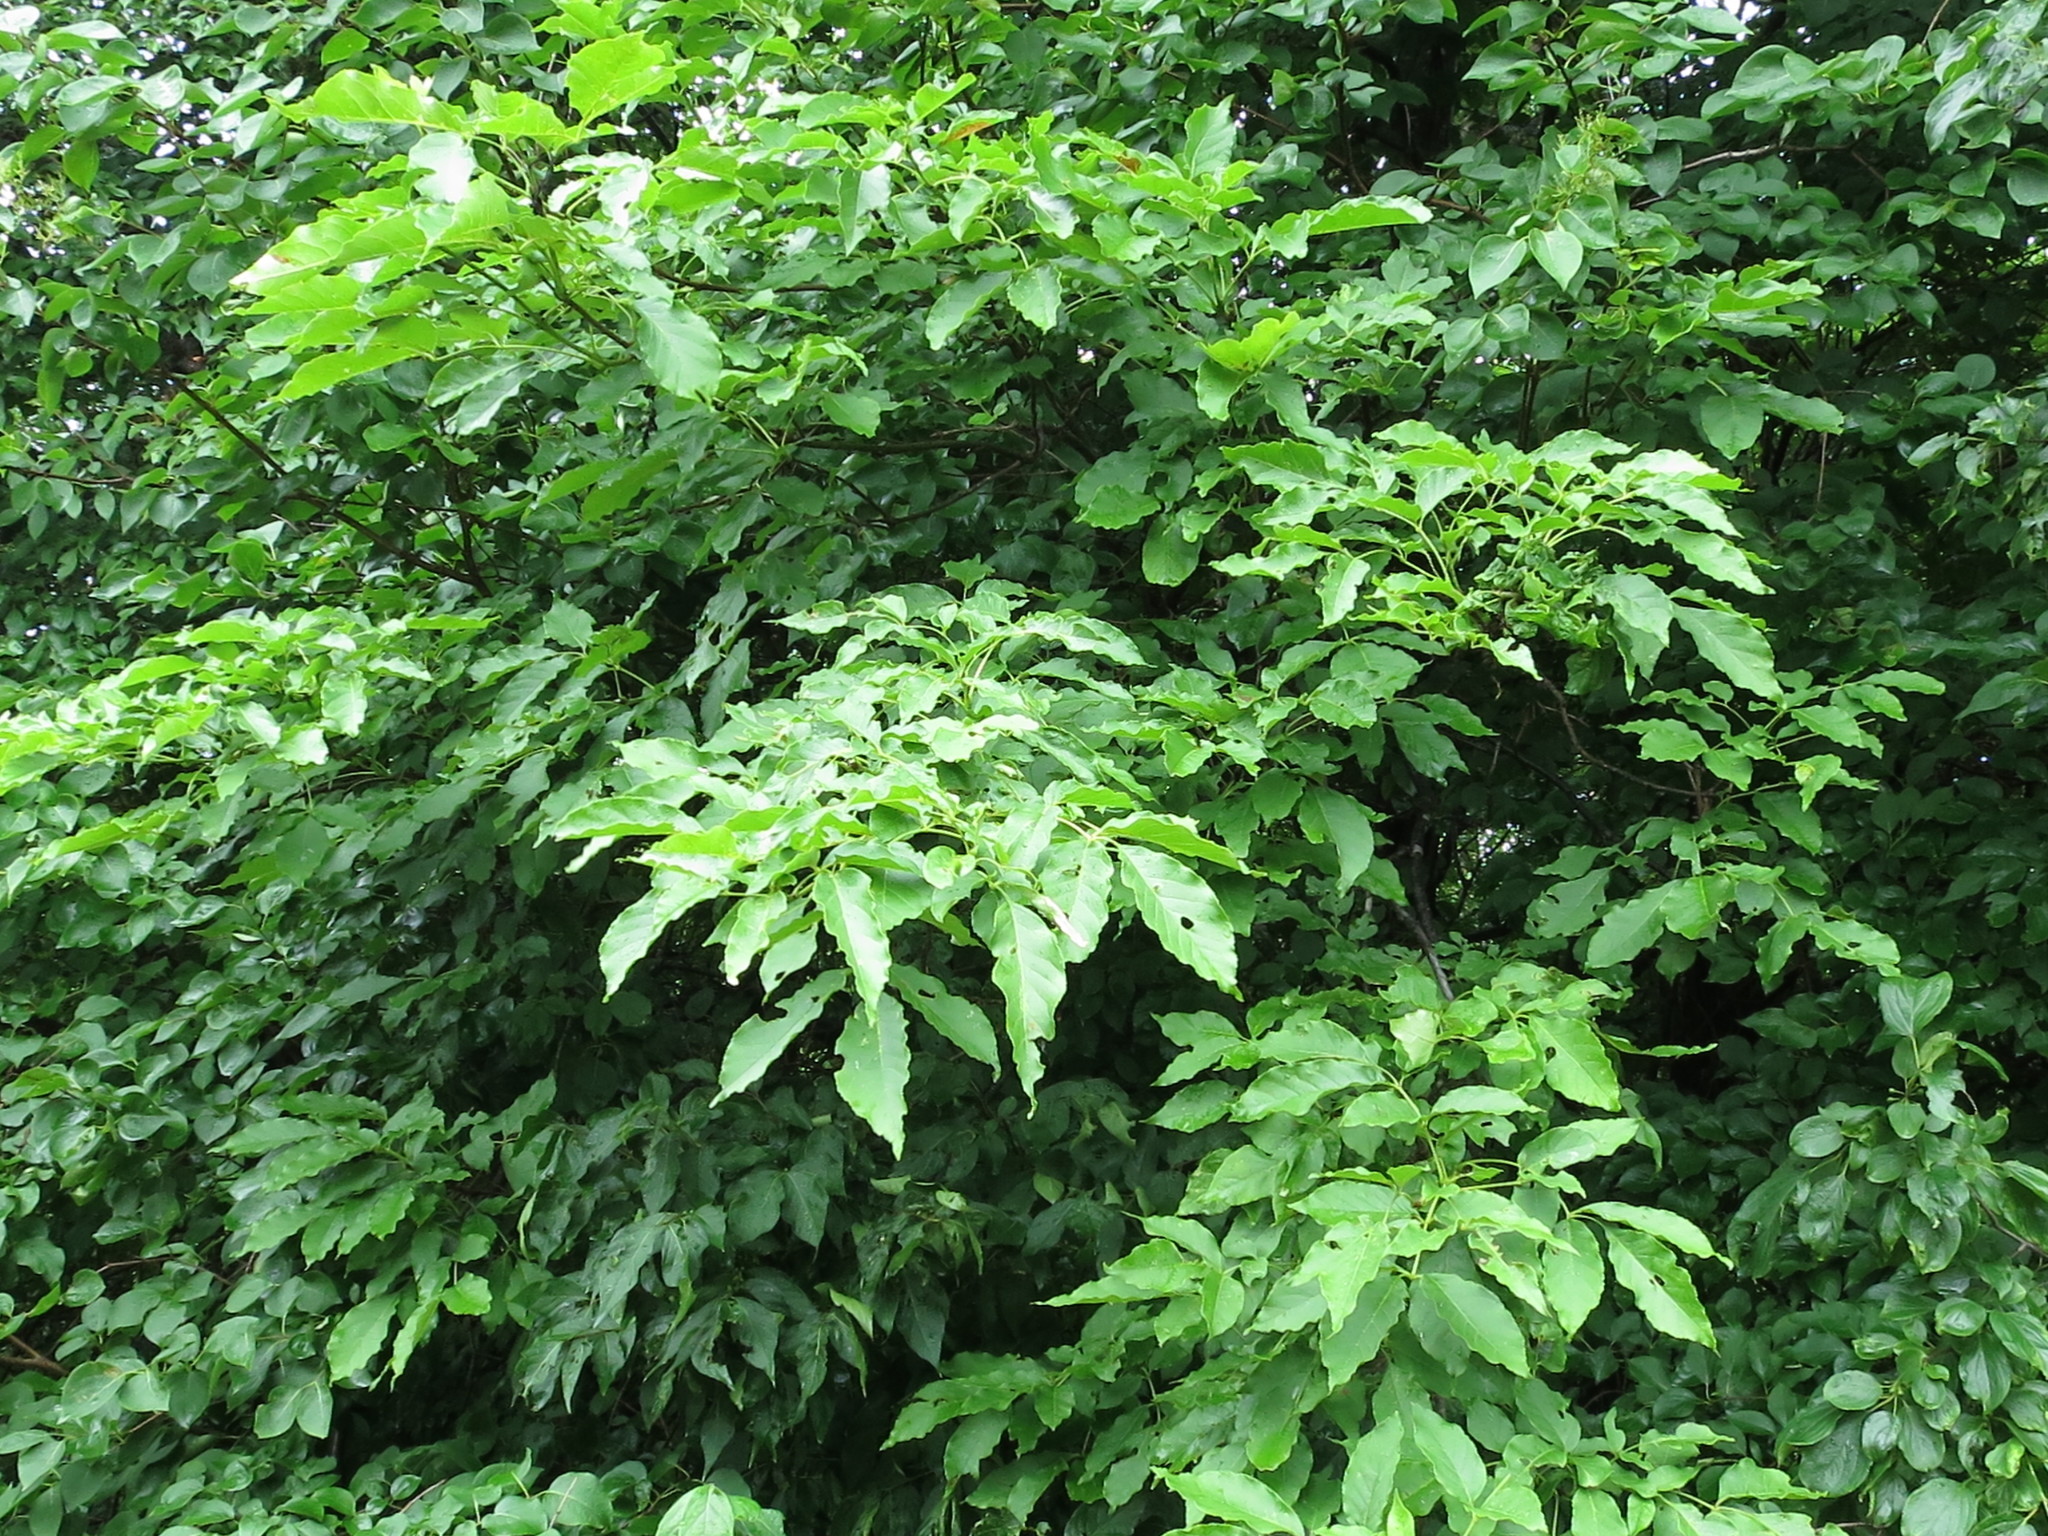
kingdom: Plantae
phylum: Tracheophyta
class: Magnoliopsida
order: Lamiales
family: Oleaceae
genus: Fraxinus
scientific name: Fraxinus chinensis
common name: Chinese ash
